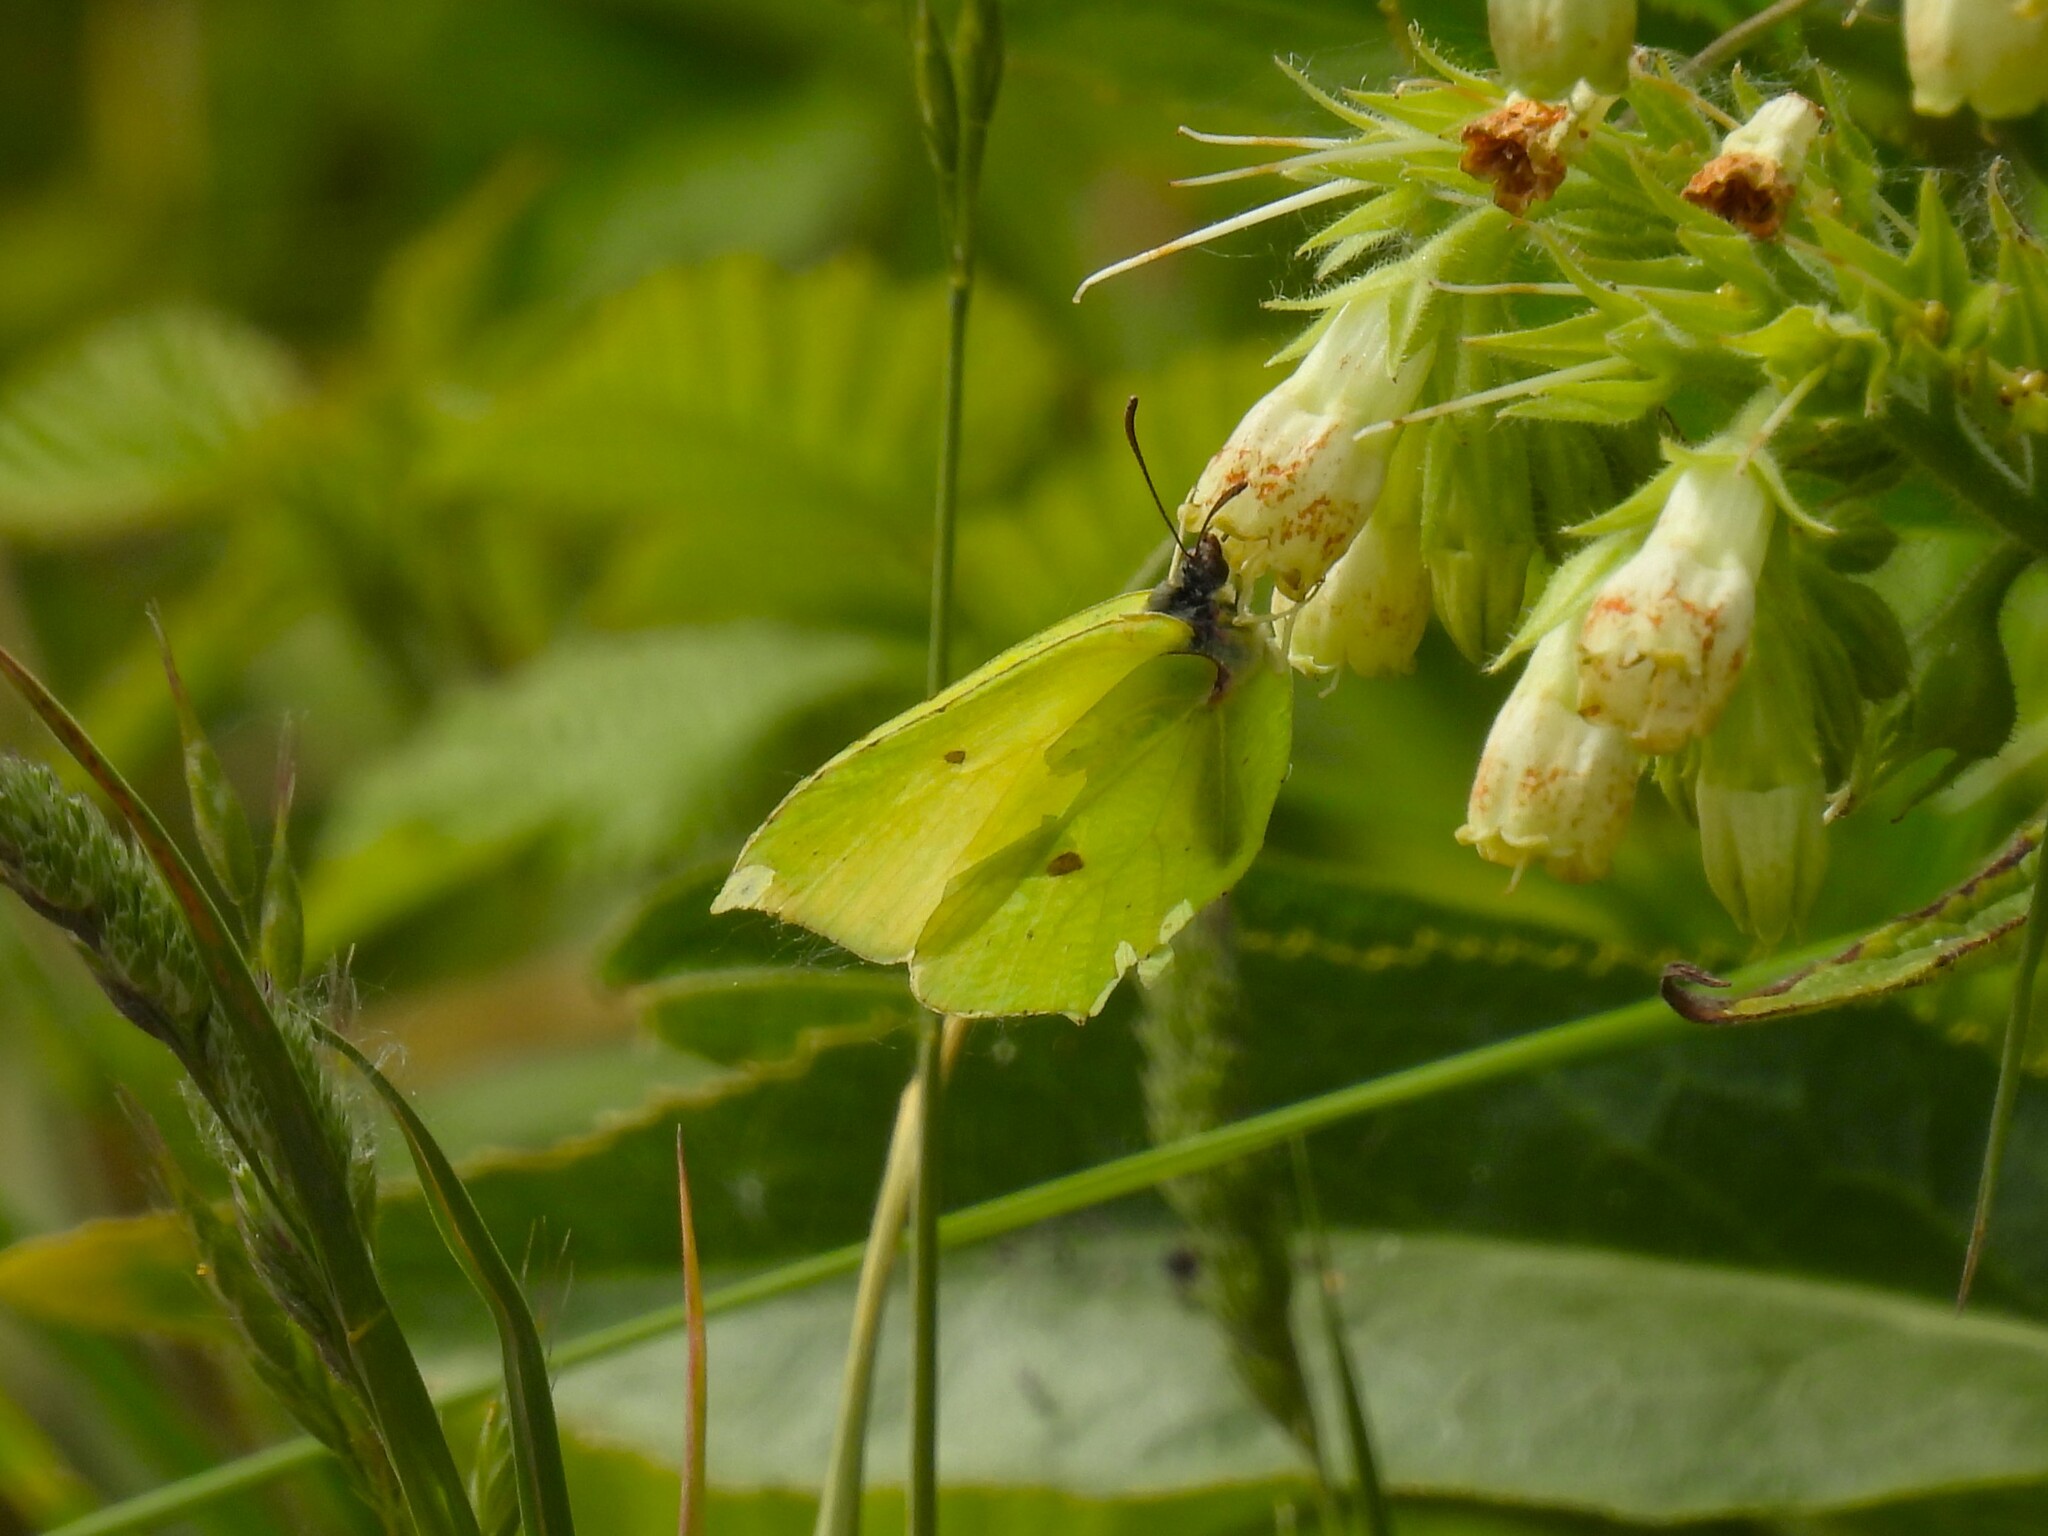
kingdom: Animalia
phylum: Arthropoda
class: Insecta
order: Lepidoptera
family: Pieridae
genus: Gonepteryx
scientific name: Gonepteryx rhamni
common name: Brimstone
